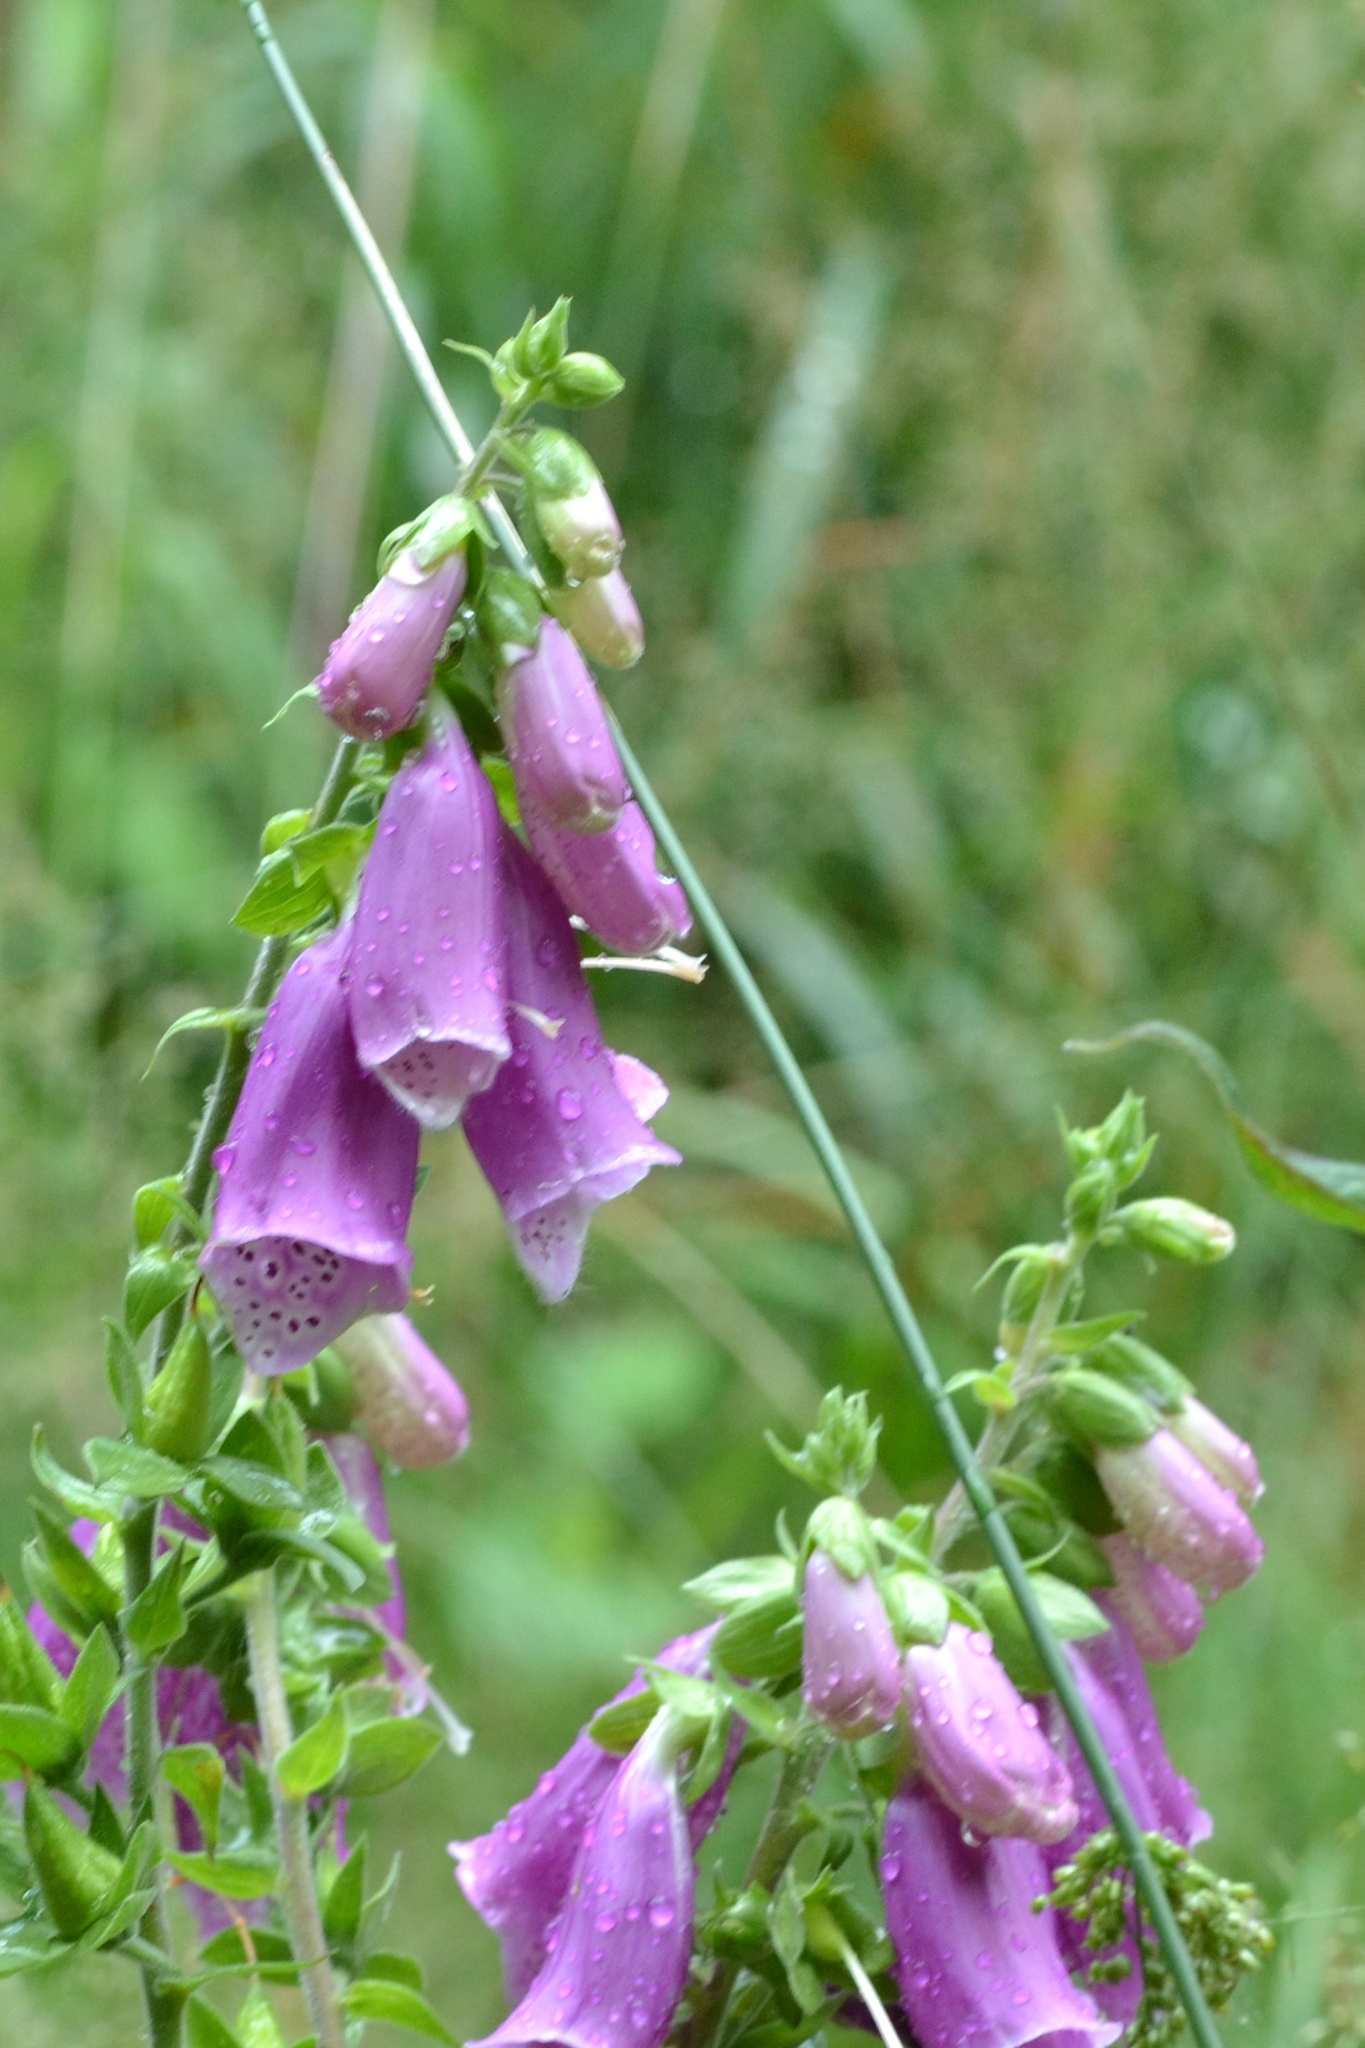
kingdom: Plantae
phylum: Tracheophyta
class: Magnoliopsida
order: Lamiales
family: Plantaginaceae
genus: Digitalis
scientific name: Digitalis purpurea
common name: Foxglove
